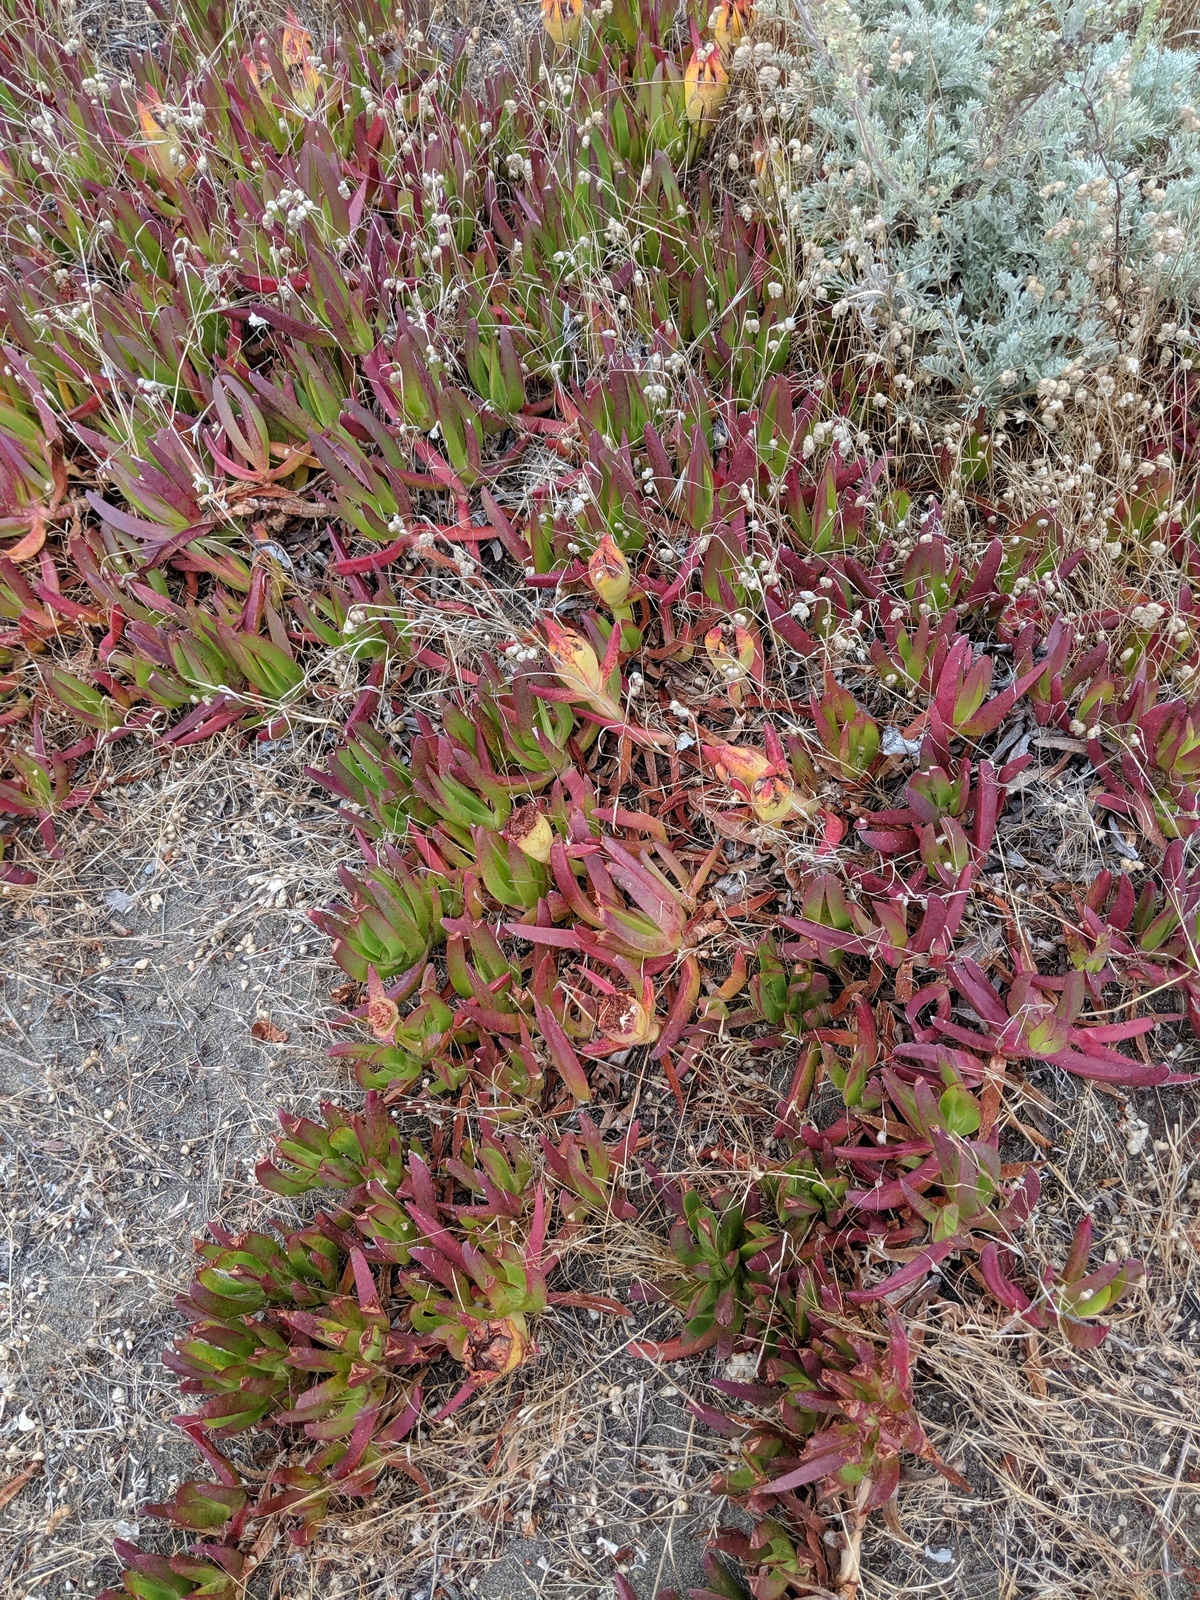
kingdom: Plantae
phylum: Tracheophyta
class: Magnoliopsida
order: Caryophyllales
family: Aizoaceae
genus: Carpobrotus
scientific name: Carpobrotus chilensis
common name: Sea fig
